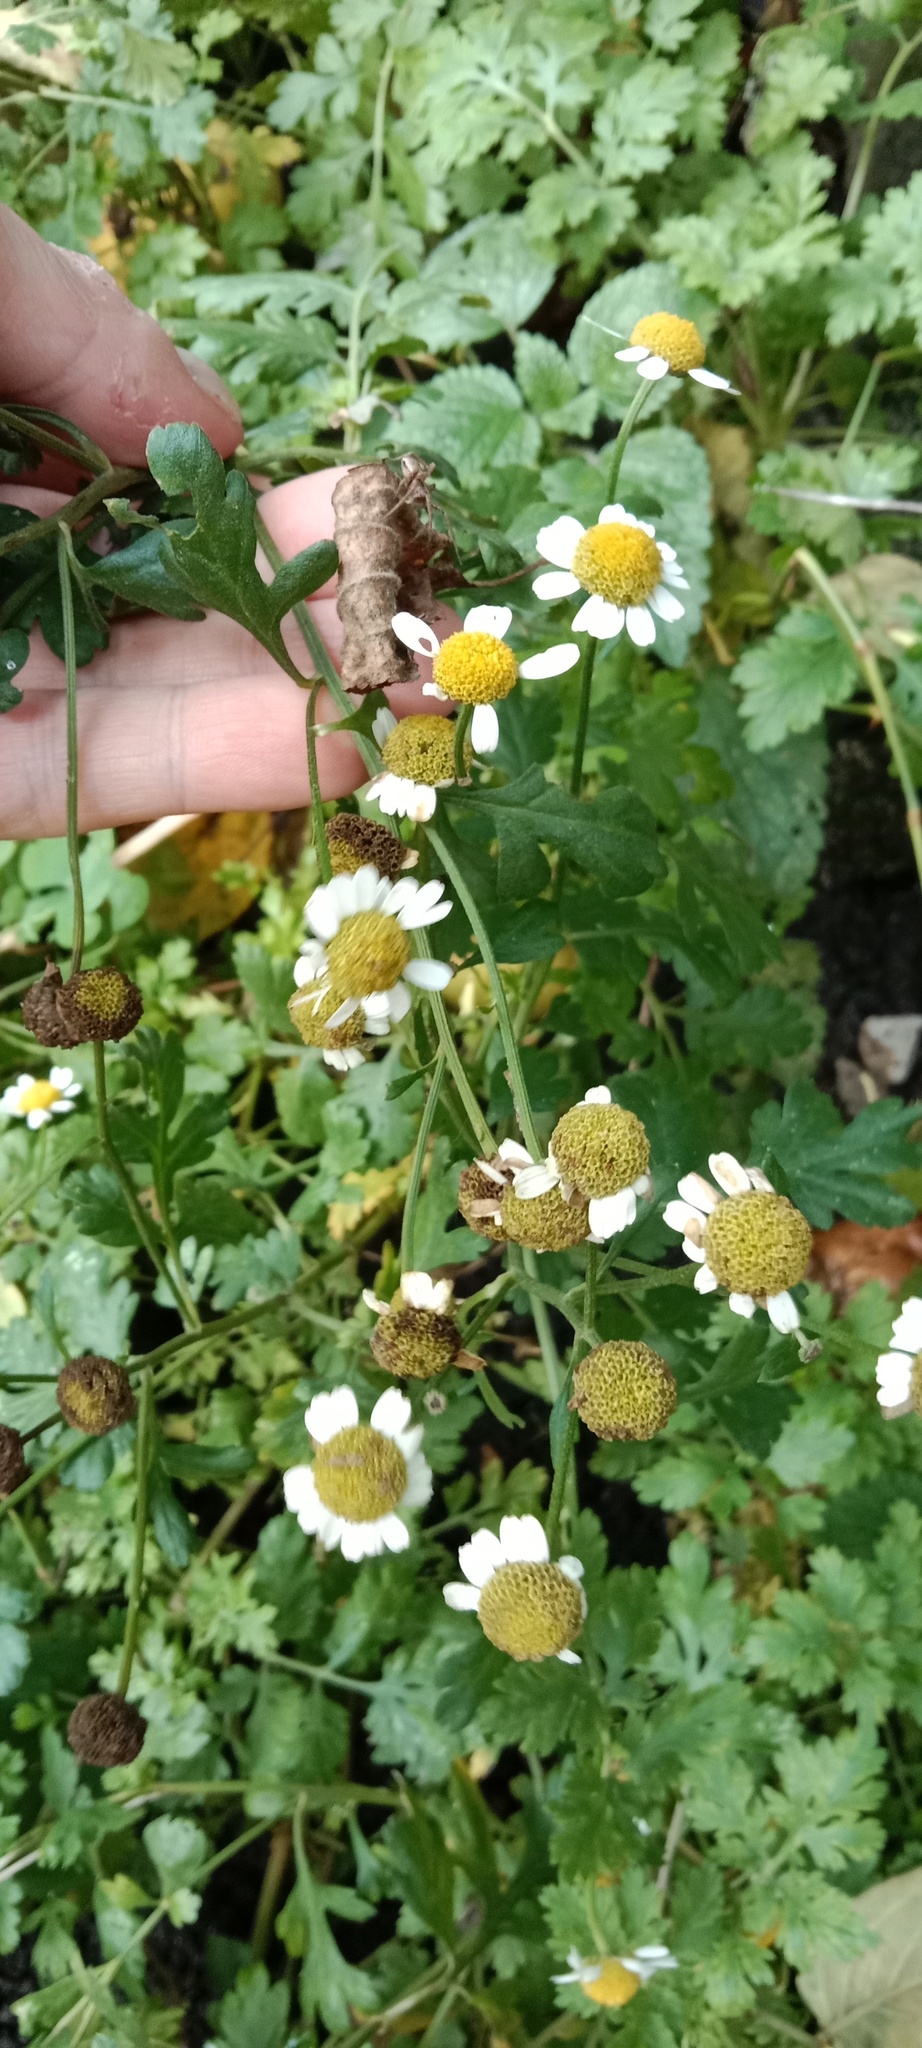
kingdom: Plantae
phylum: Tracheophyta
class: Magnoliopsida
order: Asterales
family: Asteraceae
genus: Tanacetum
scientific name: Tanacetum parthenium
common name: Feverfew
